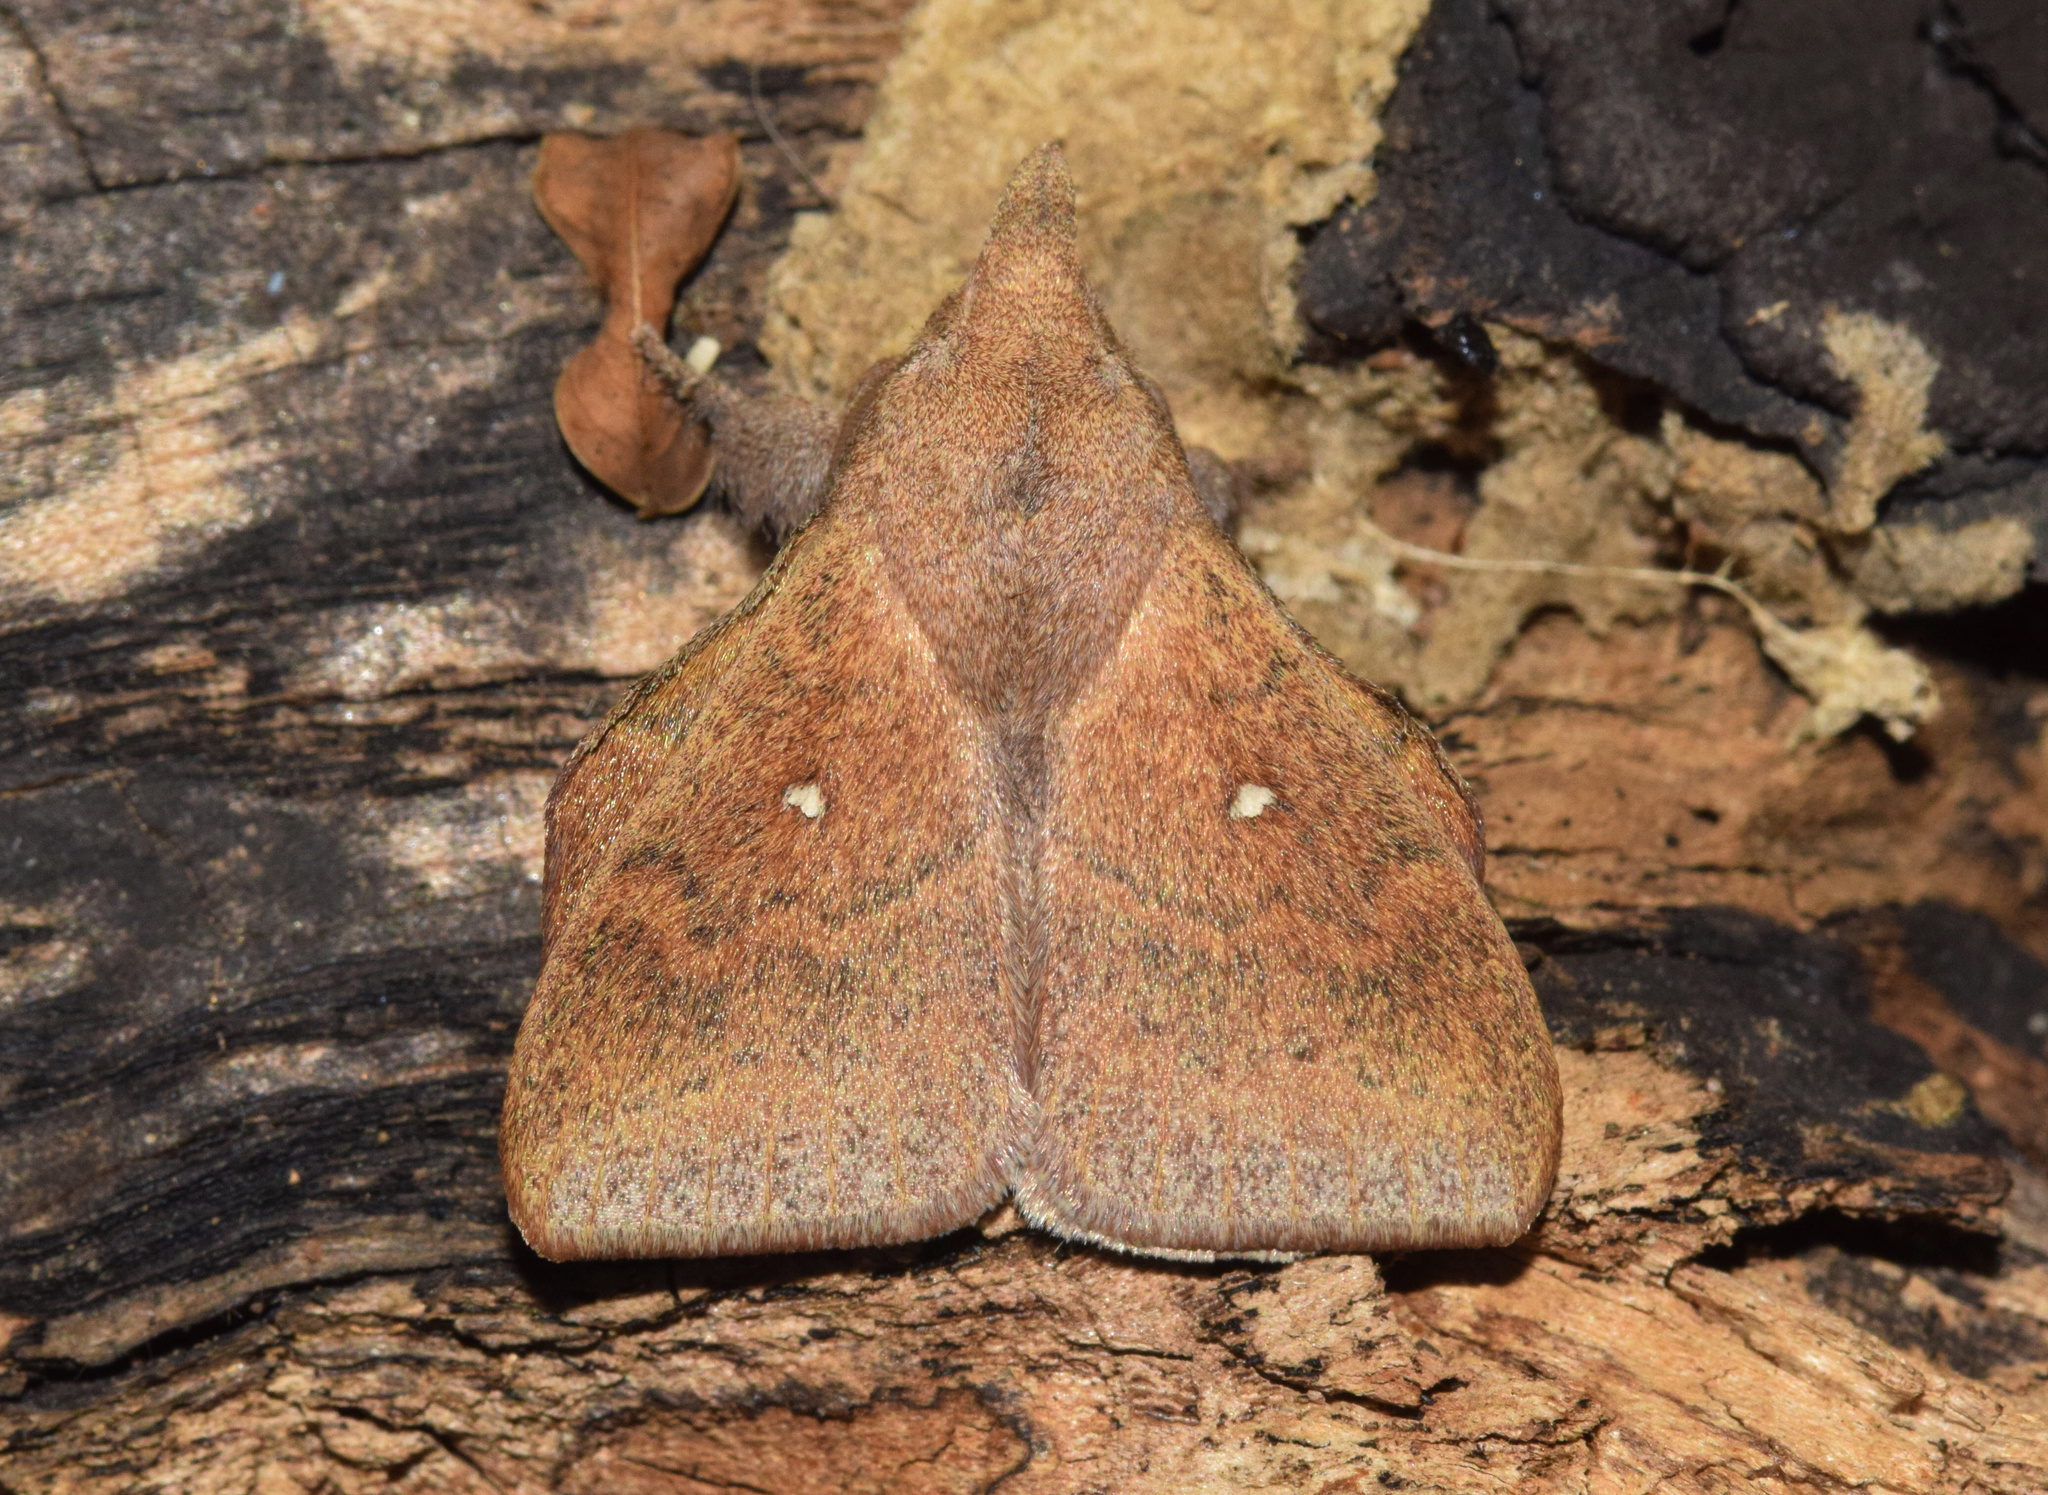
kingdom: Animalia
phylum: Arthropoda
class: Insecta
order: Lepidoptera
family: Lasiocampidae
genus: Leipoxais
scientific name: Leipoxais peraffinis
